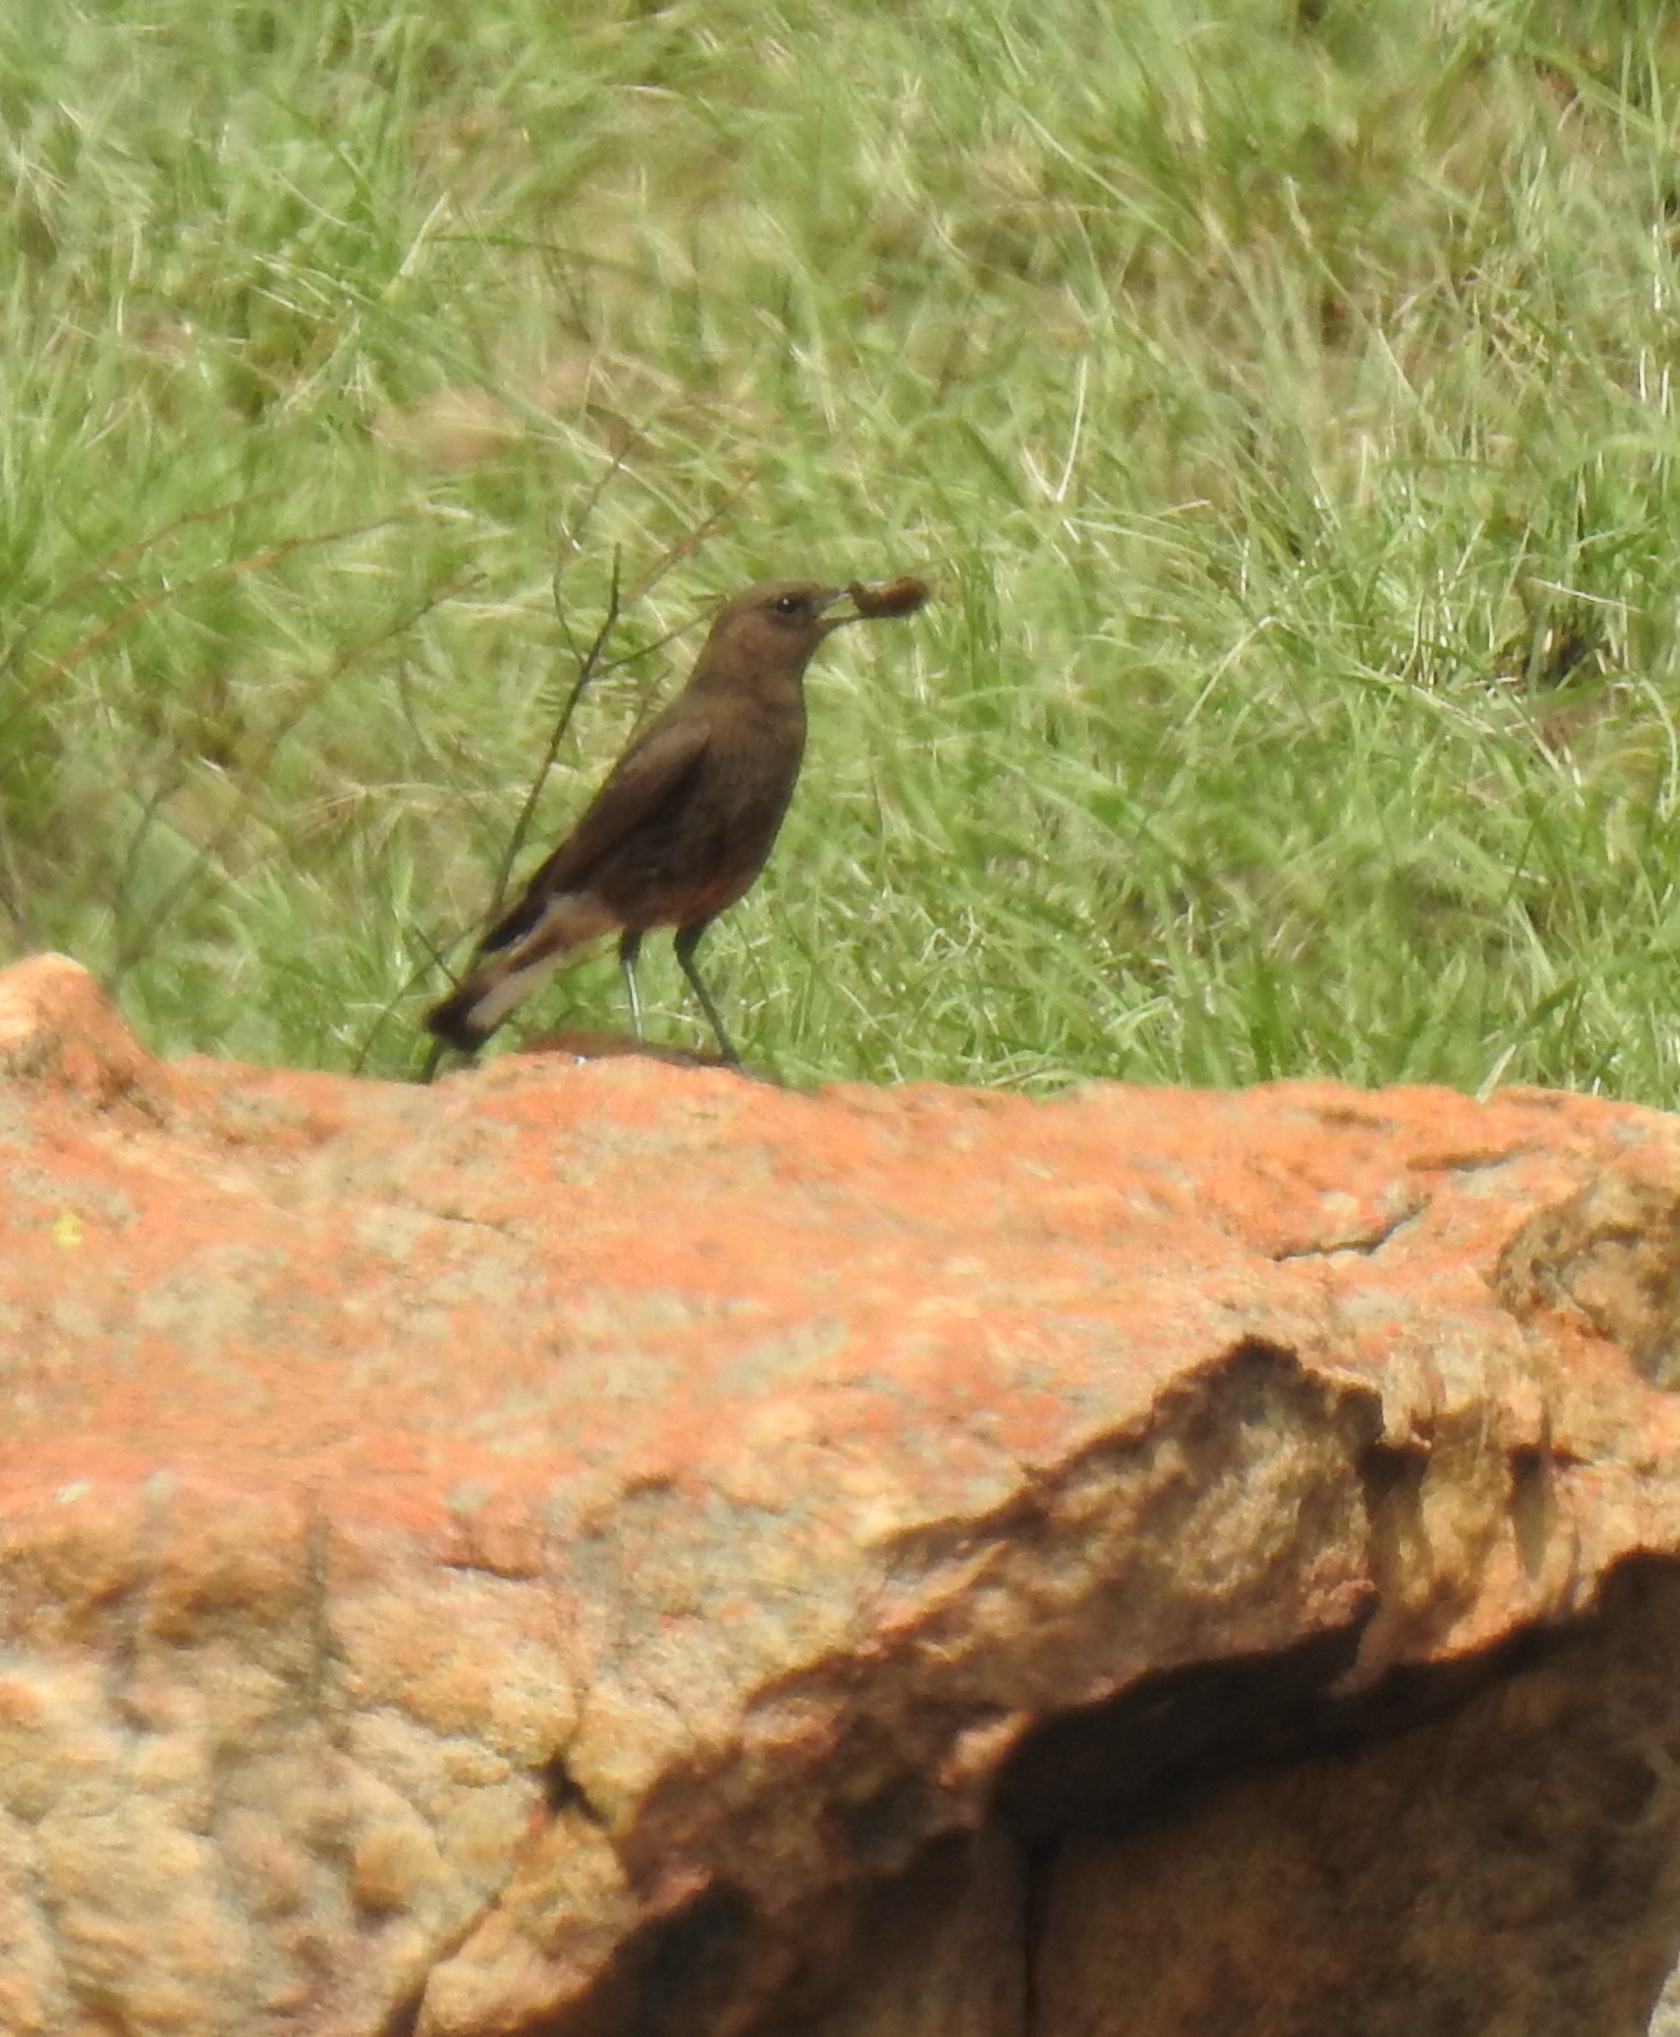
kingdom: Animalia
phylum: Chordata
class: Aves
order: Passeriformes
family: Muscicapidae
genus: Oenanthe
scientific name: Oenanthe monticola
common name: Mountain wheatear
